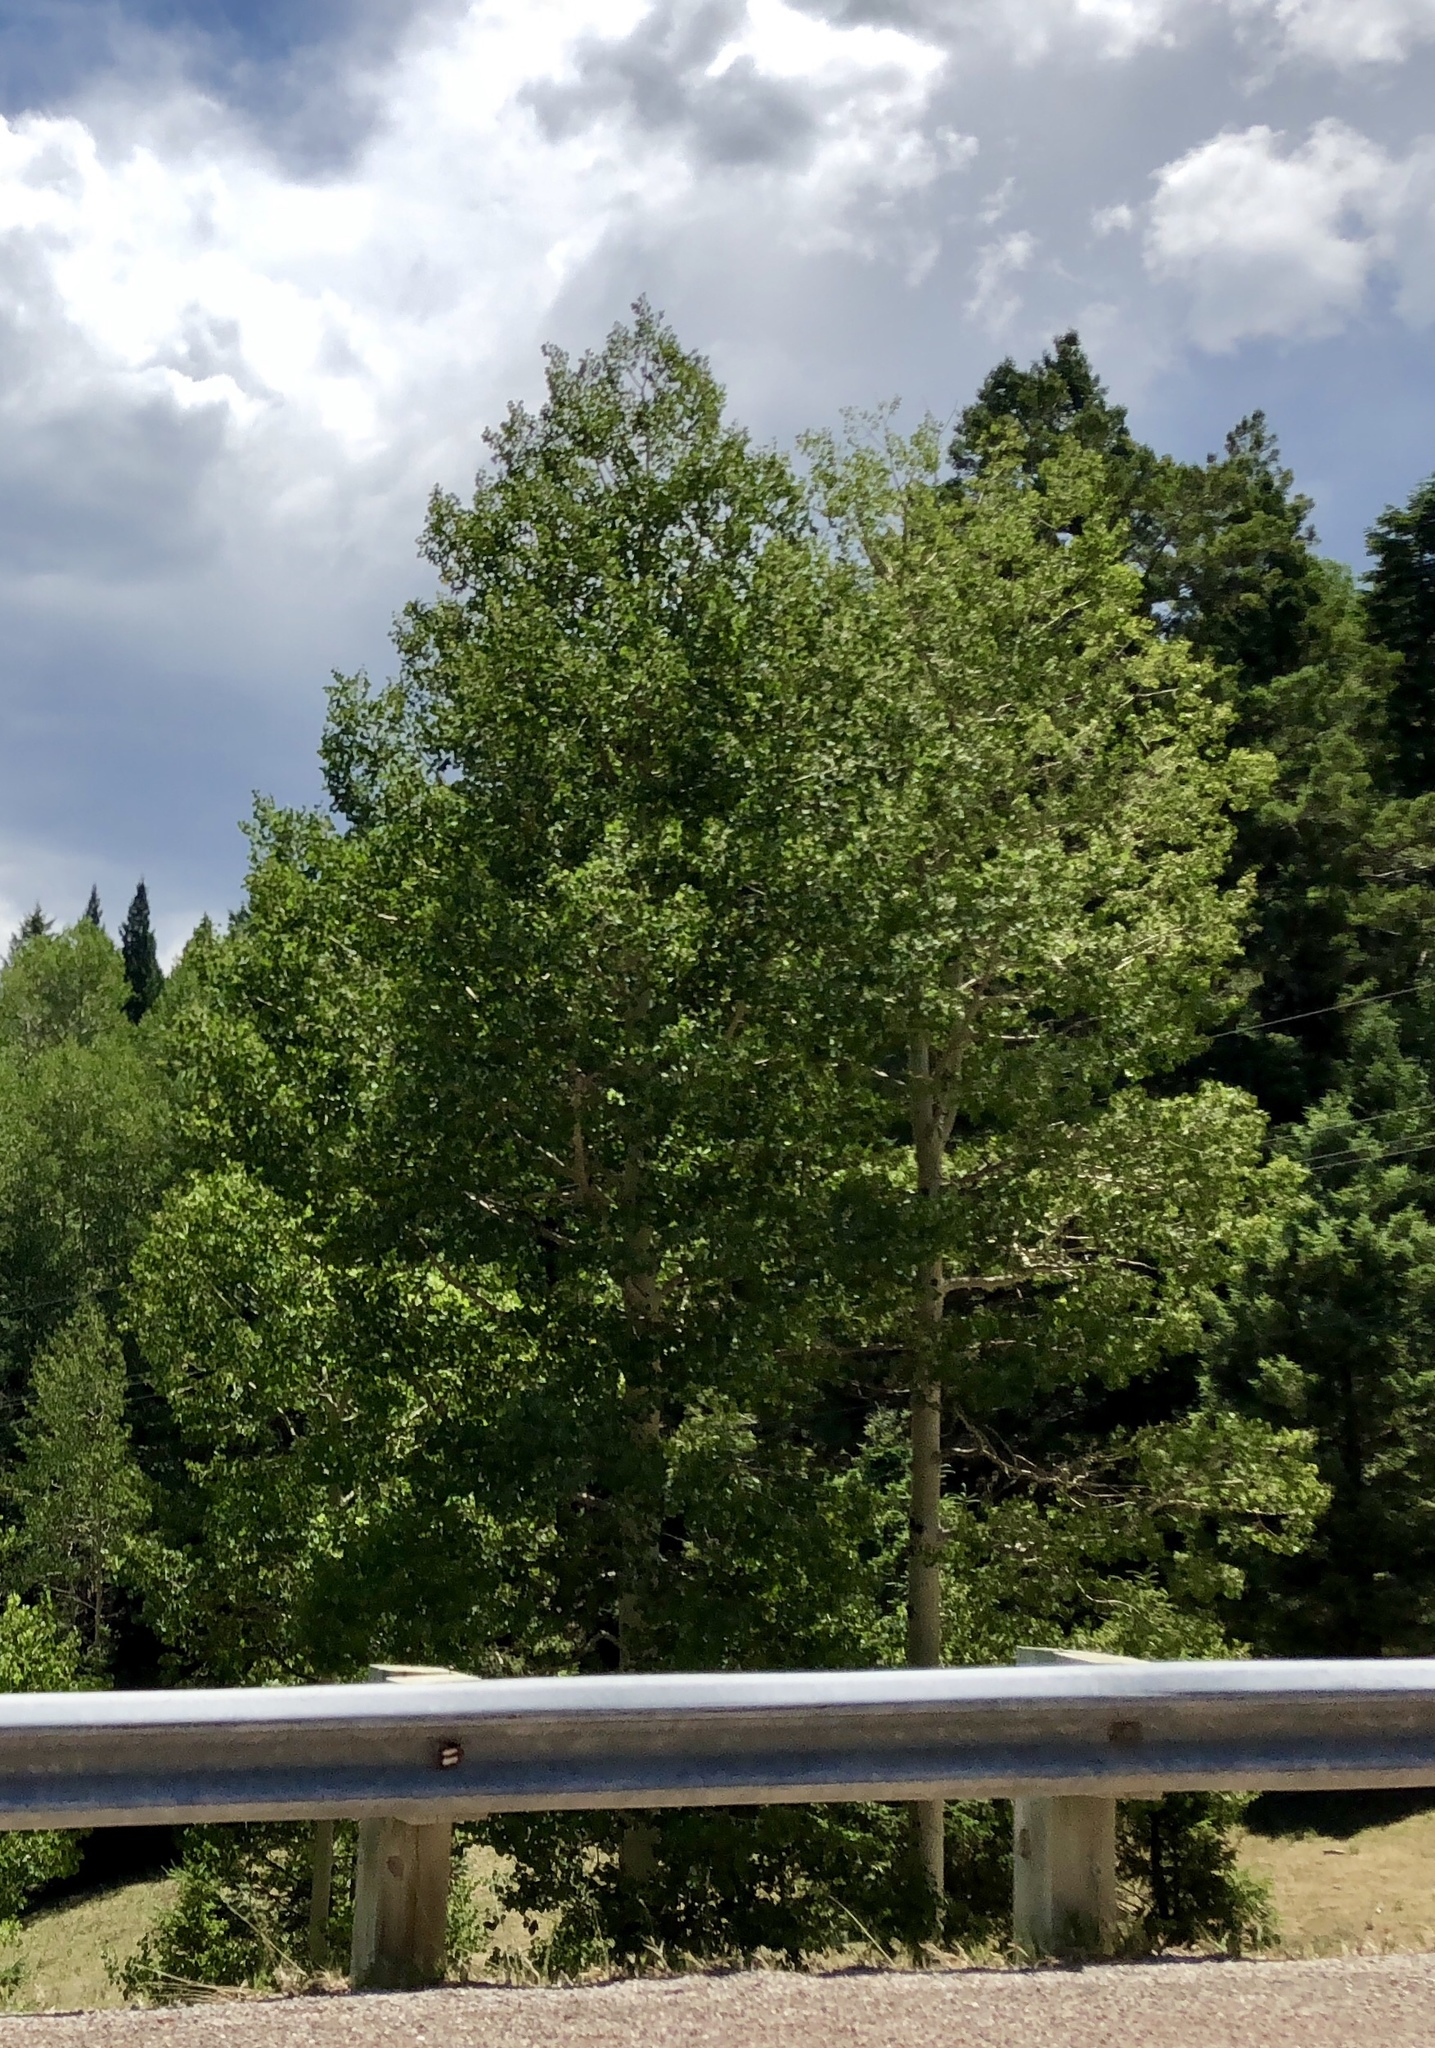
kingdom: Plantae
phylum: Tracheophyta
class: Magnoliopsida
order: Malpighiales
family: Salicaceae
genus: Populus
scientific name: Populus tremuloides
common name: Quaking aspen
